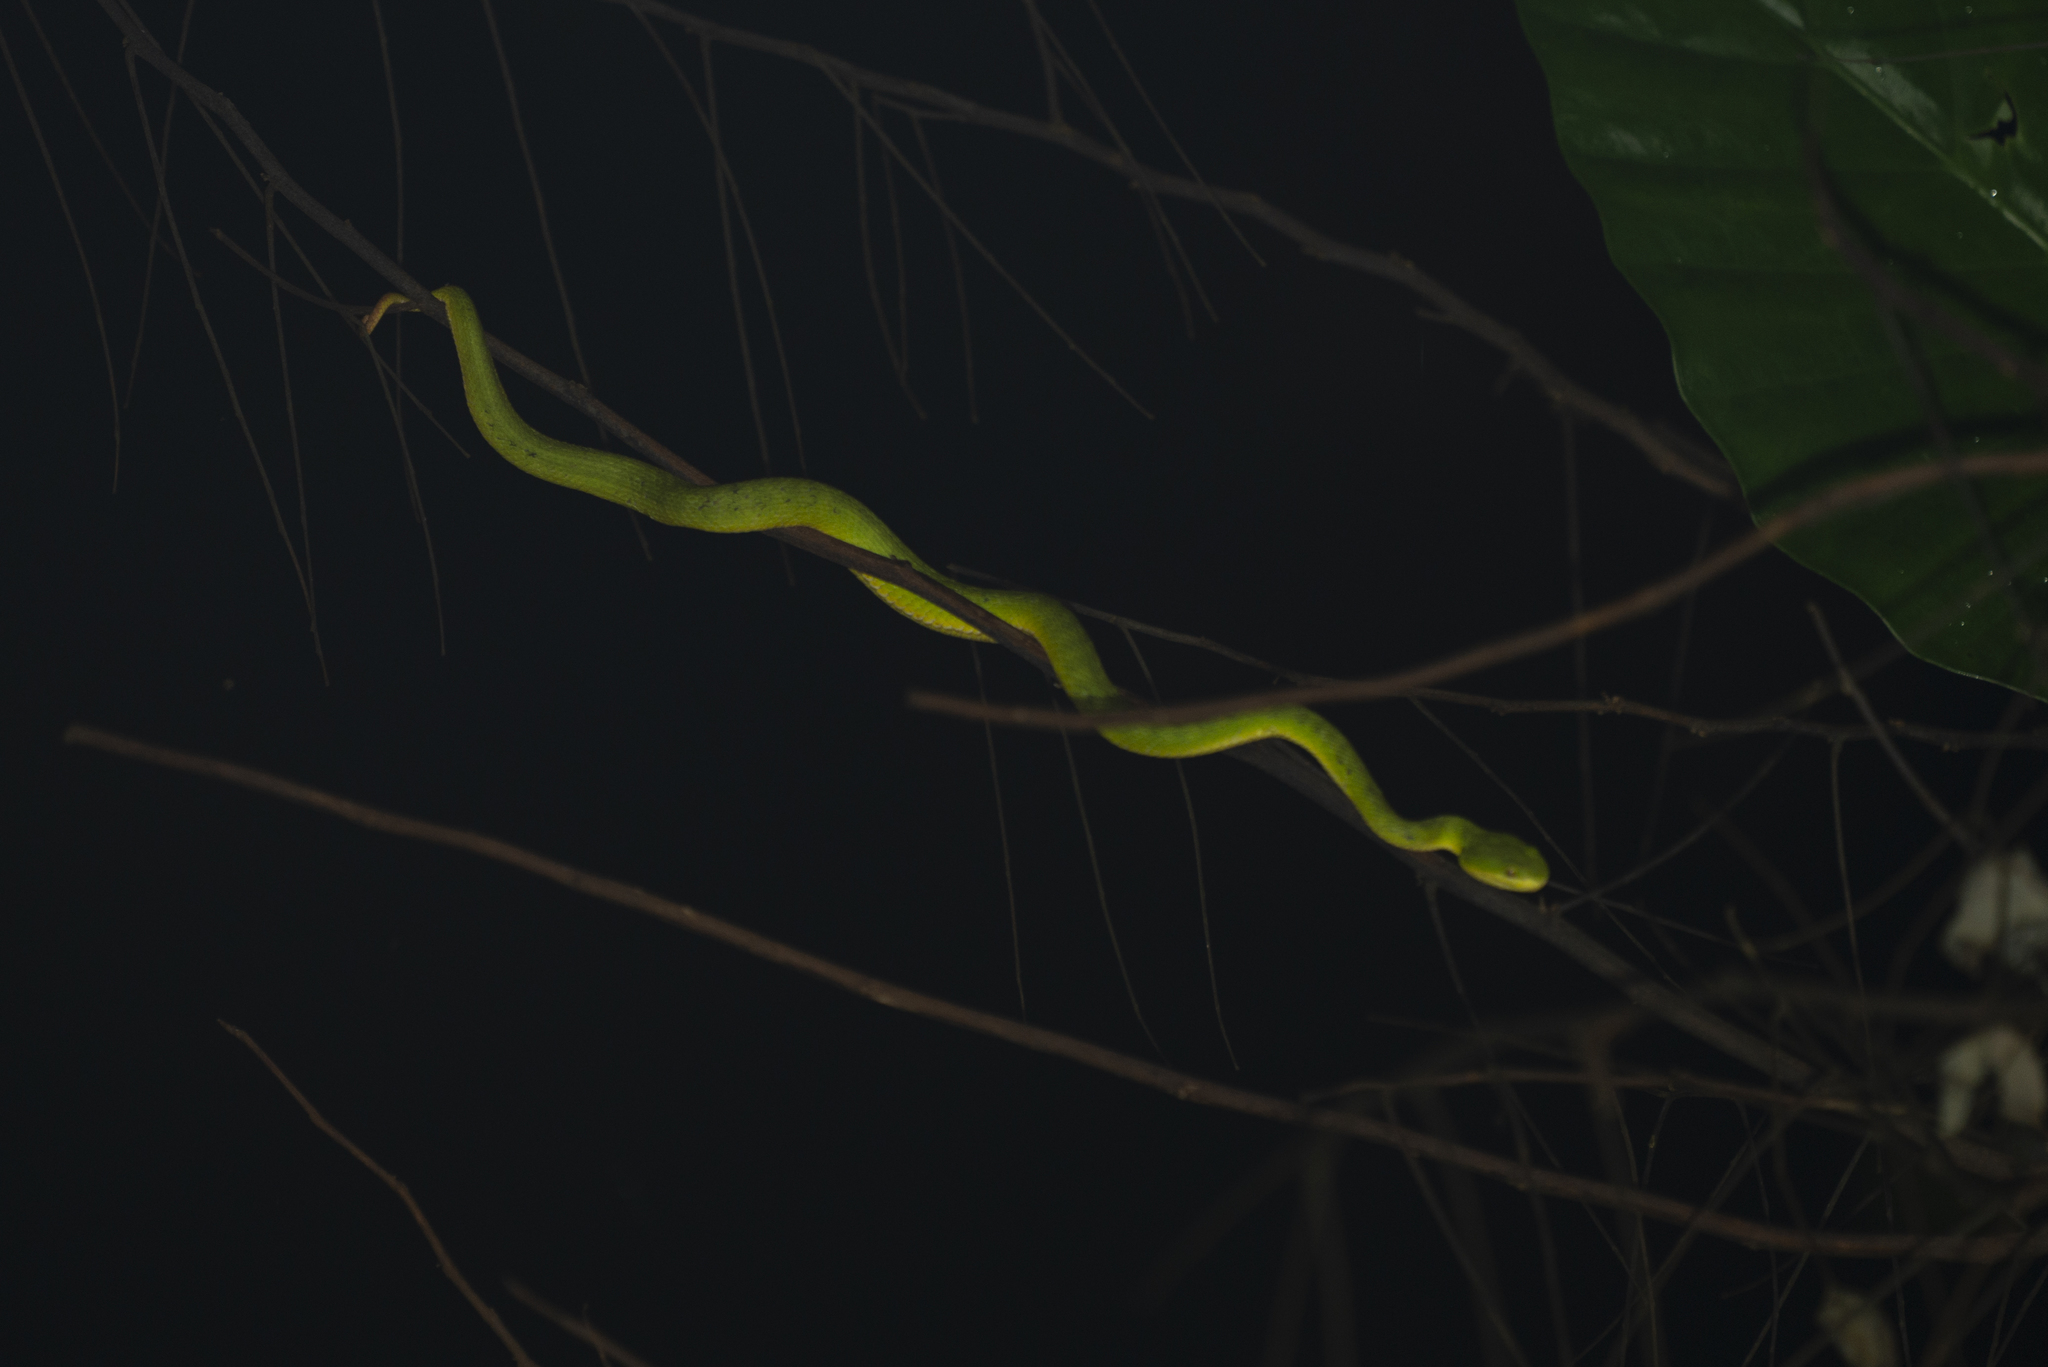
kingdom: Animalia
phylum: Chordata
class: Squamata
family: Viperidae
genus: Trimeresurus
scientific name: Trimeresurus albolabris
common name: White-lipped pitviper
